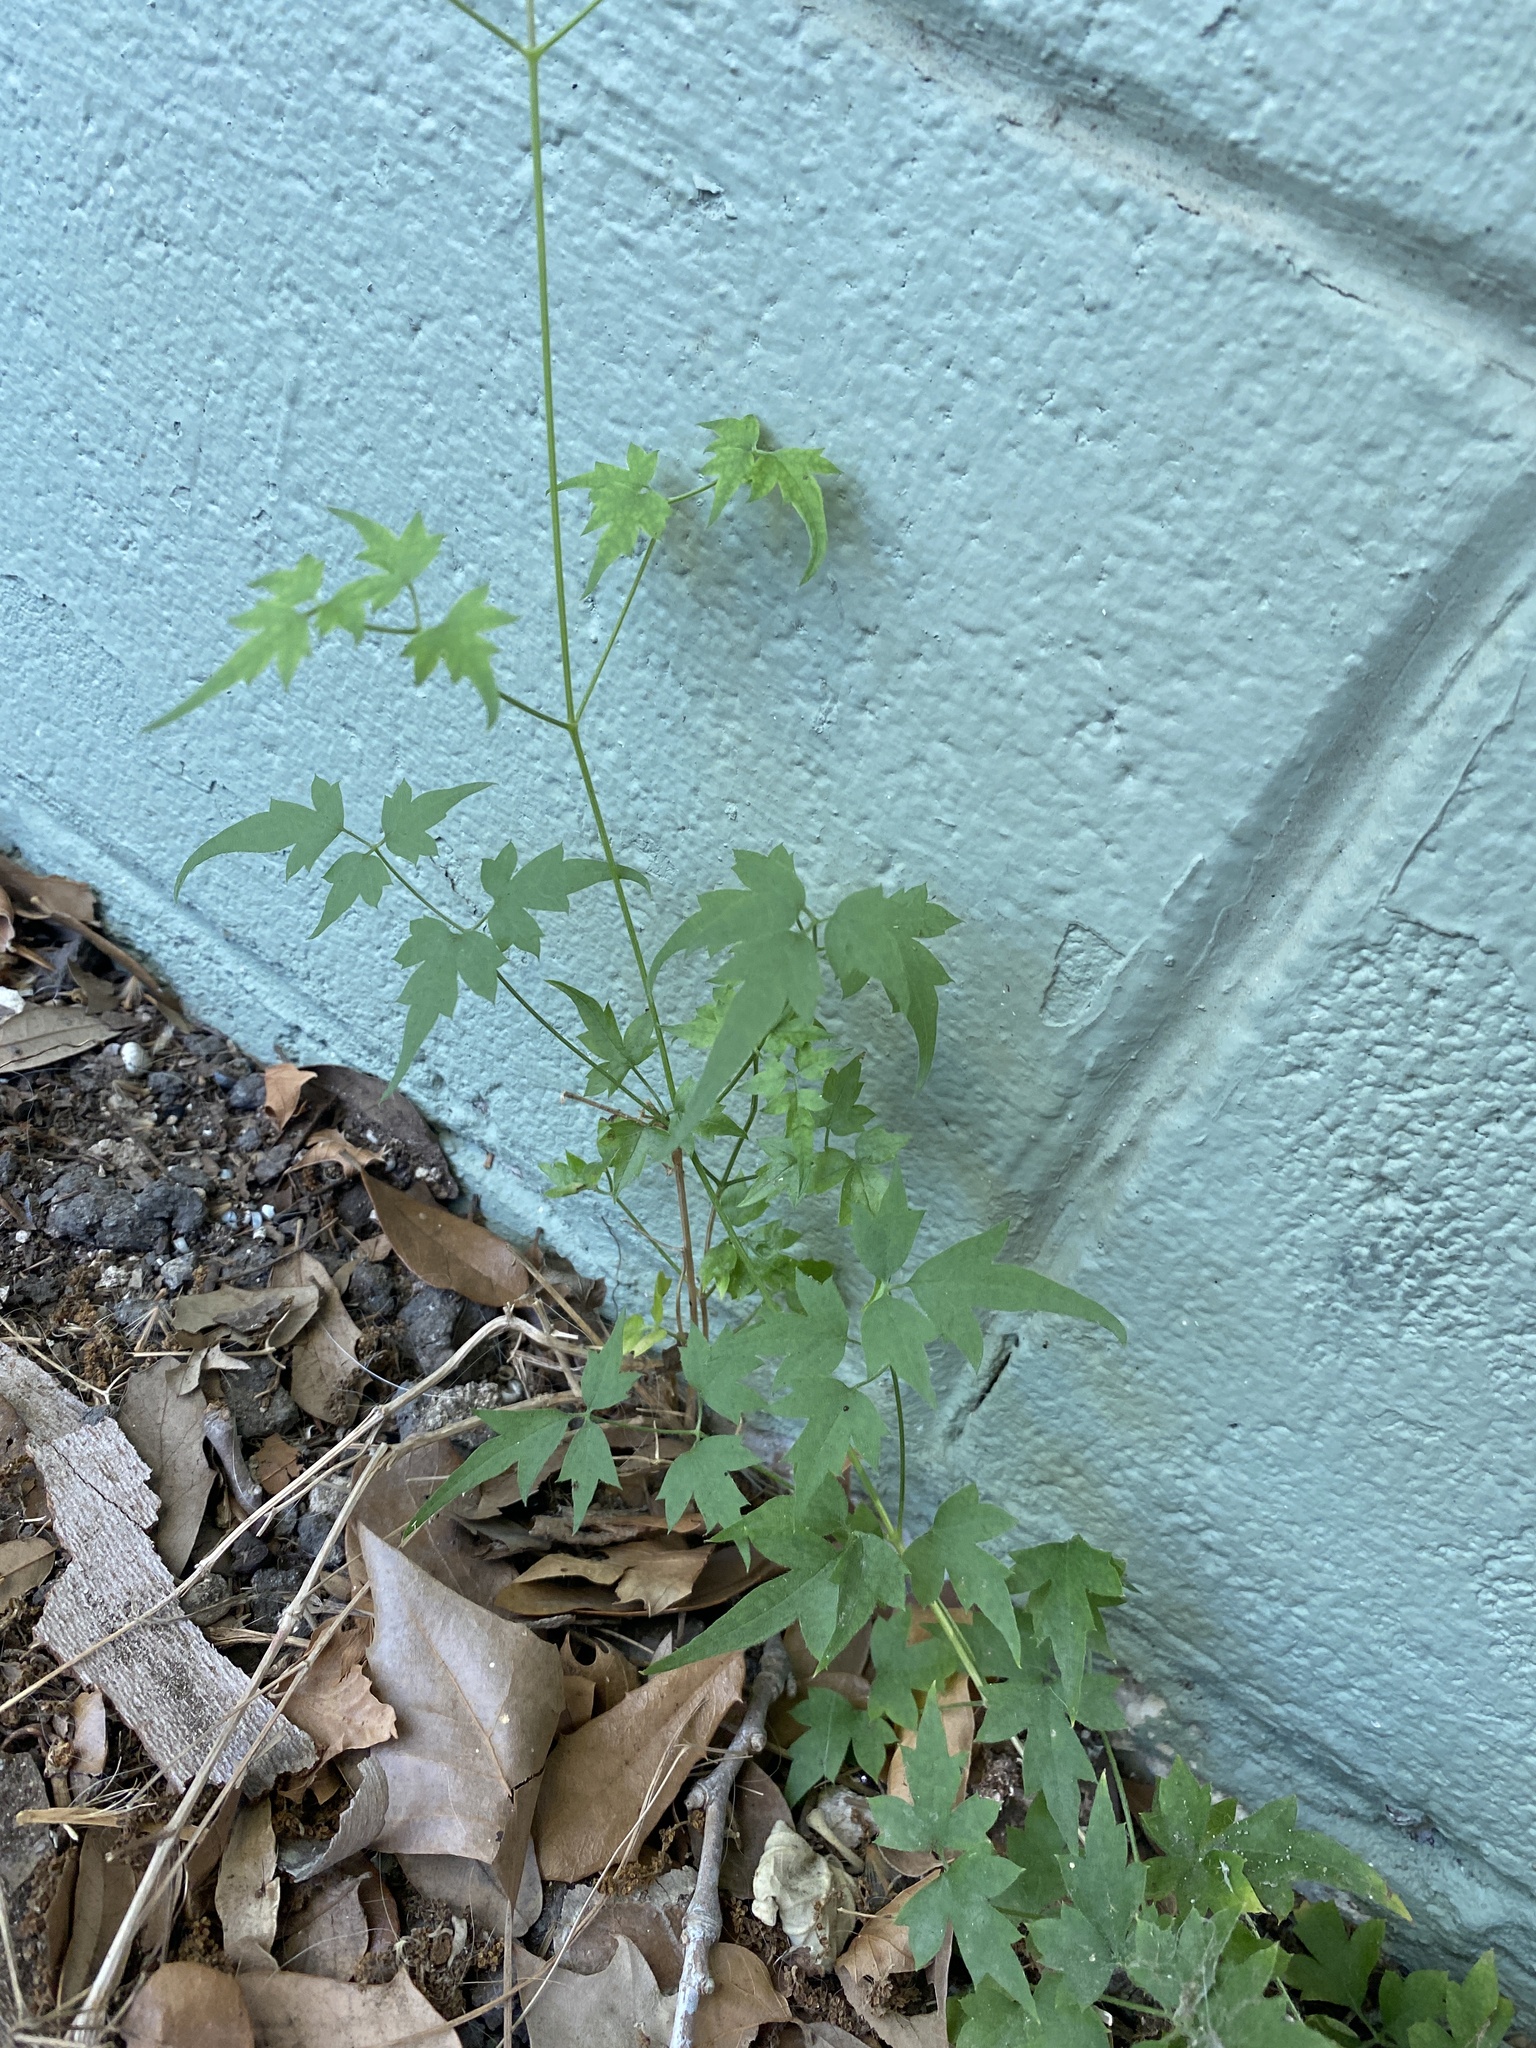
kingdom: Plantae
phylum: Tracheophyta
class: Magnoliopsida
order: Ranunculales
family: Ranunculaceae
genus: Clematis
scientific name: Clematis drummondii
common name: Texas virgin's bower
